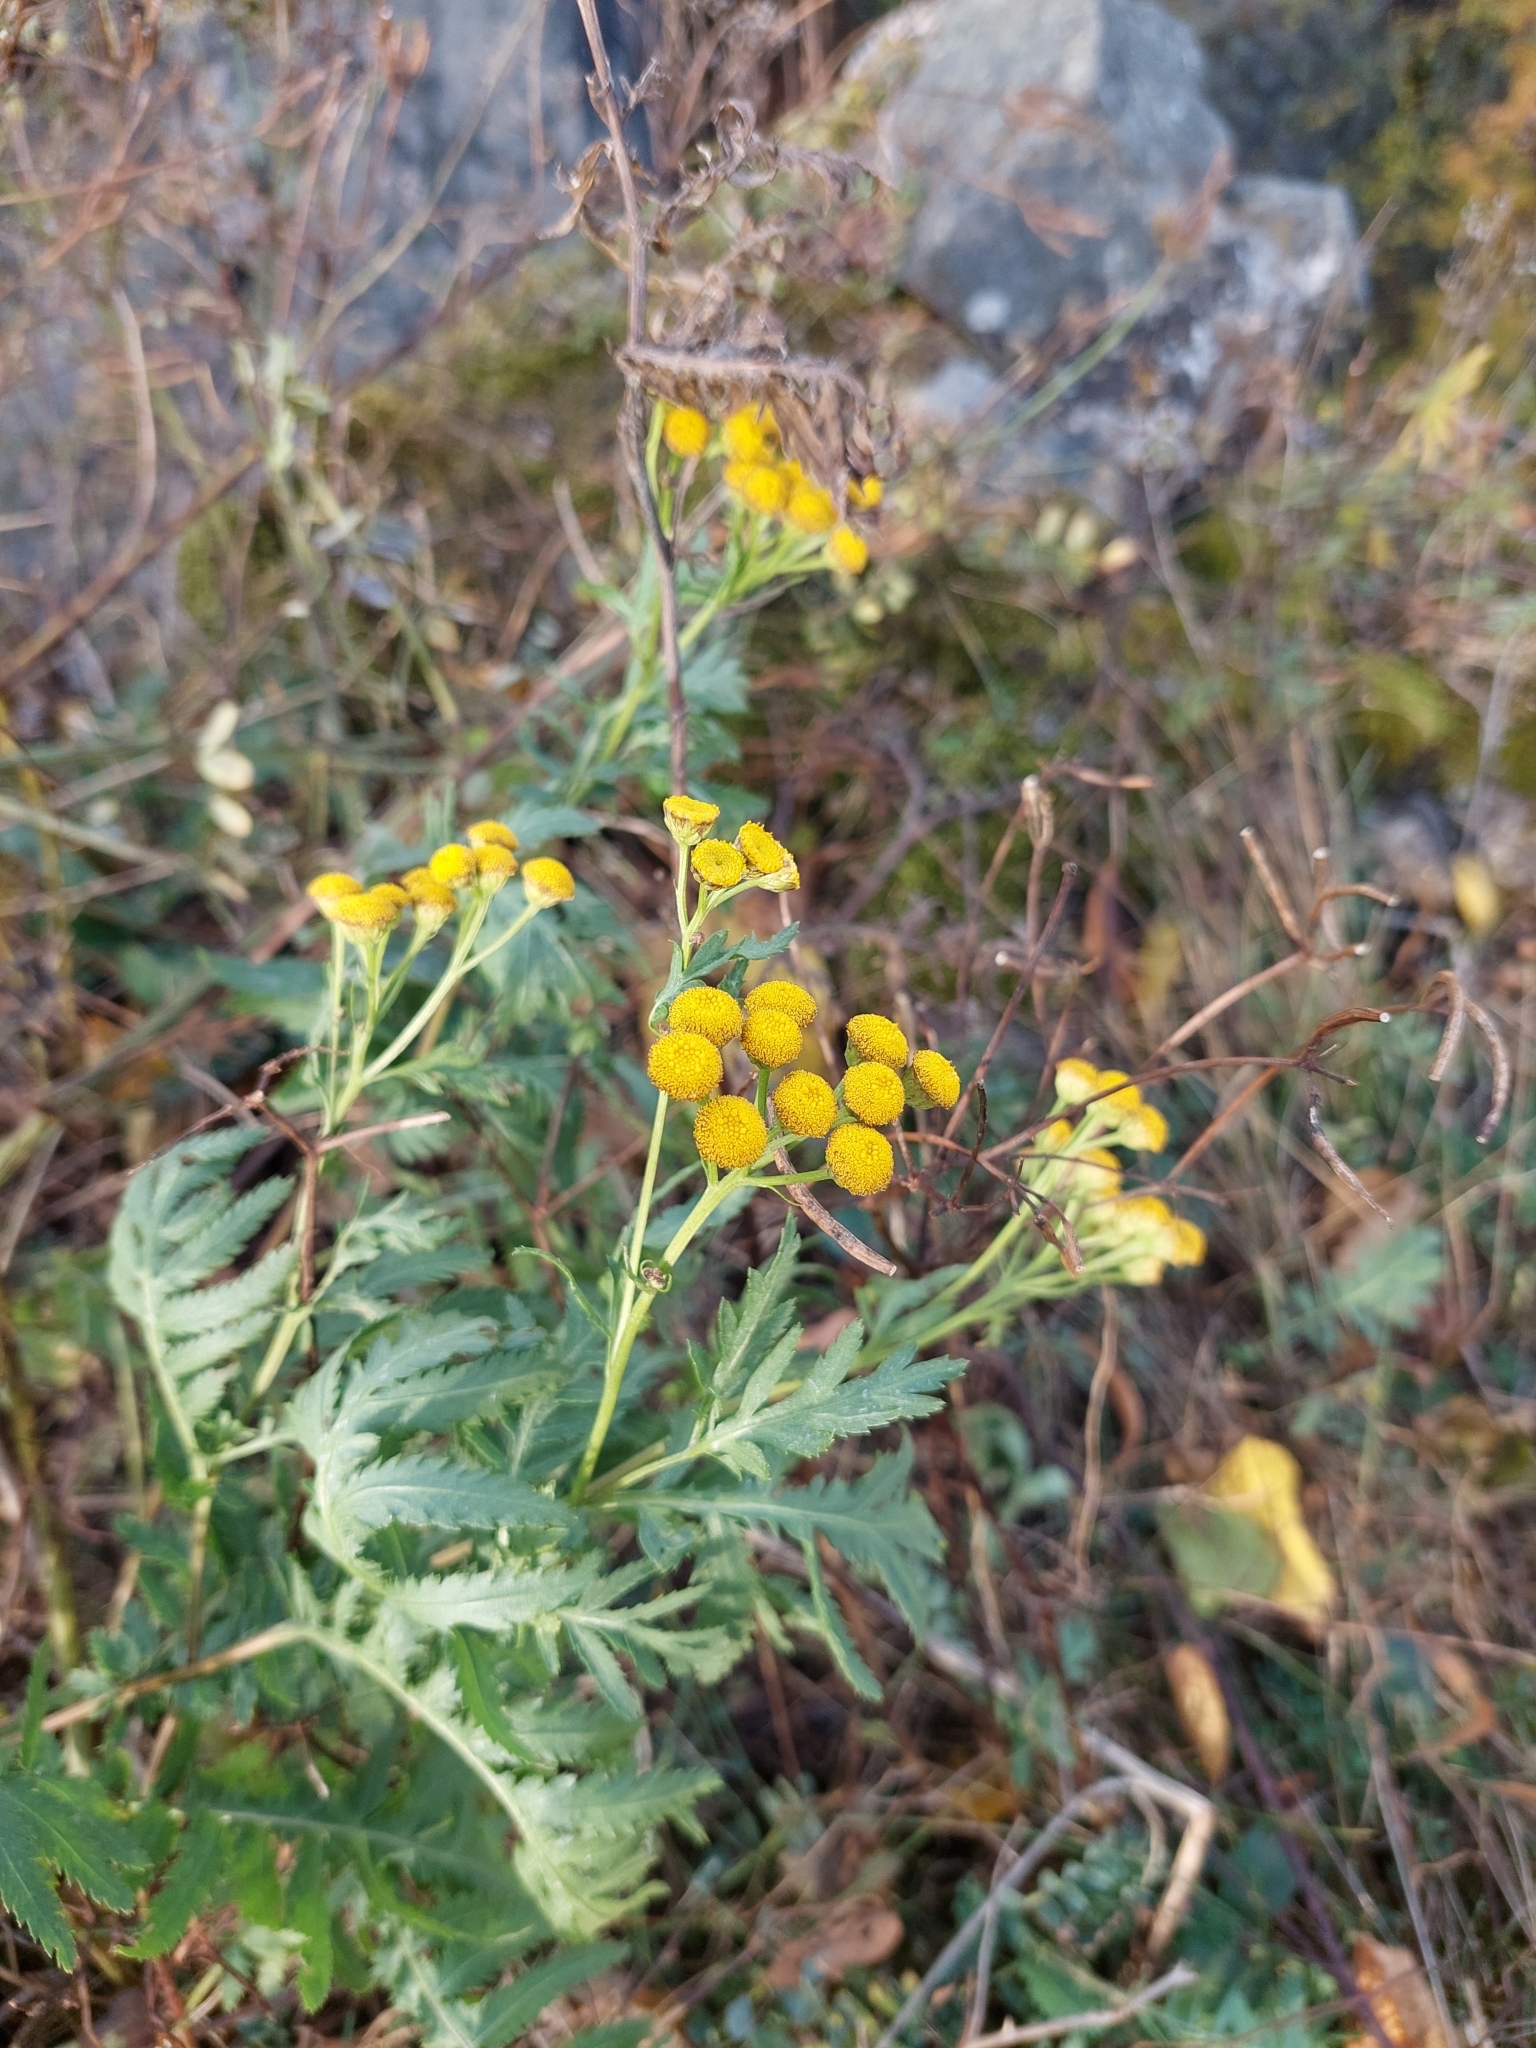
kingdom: Plantae
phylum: Tracheophyta
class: Magnoliopsida
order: Asterales
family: Asteraceae
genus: Tanacetum
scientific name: Tanacetum vulgare
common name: Common tansy
